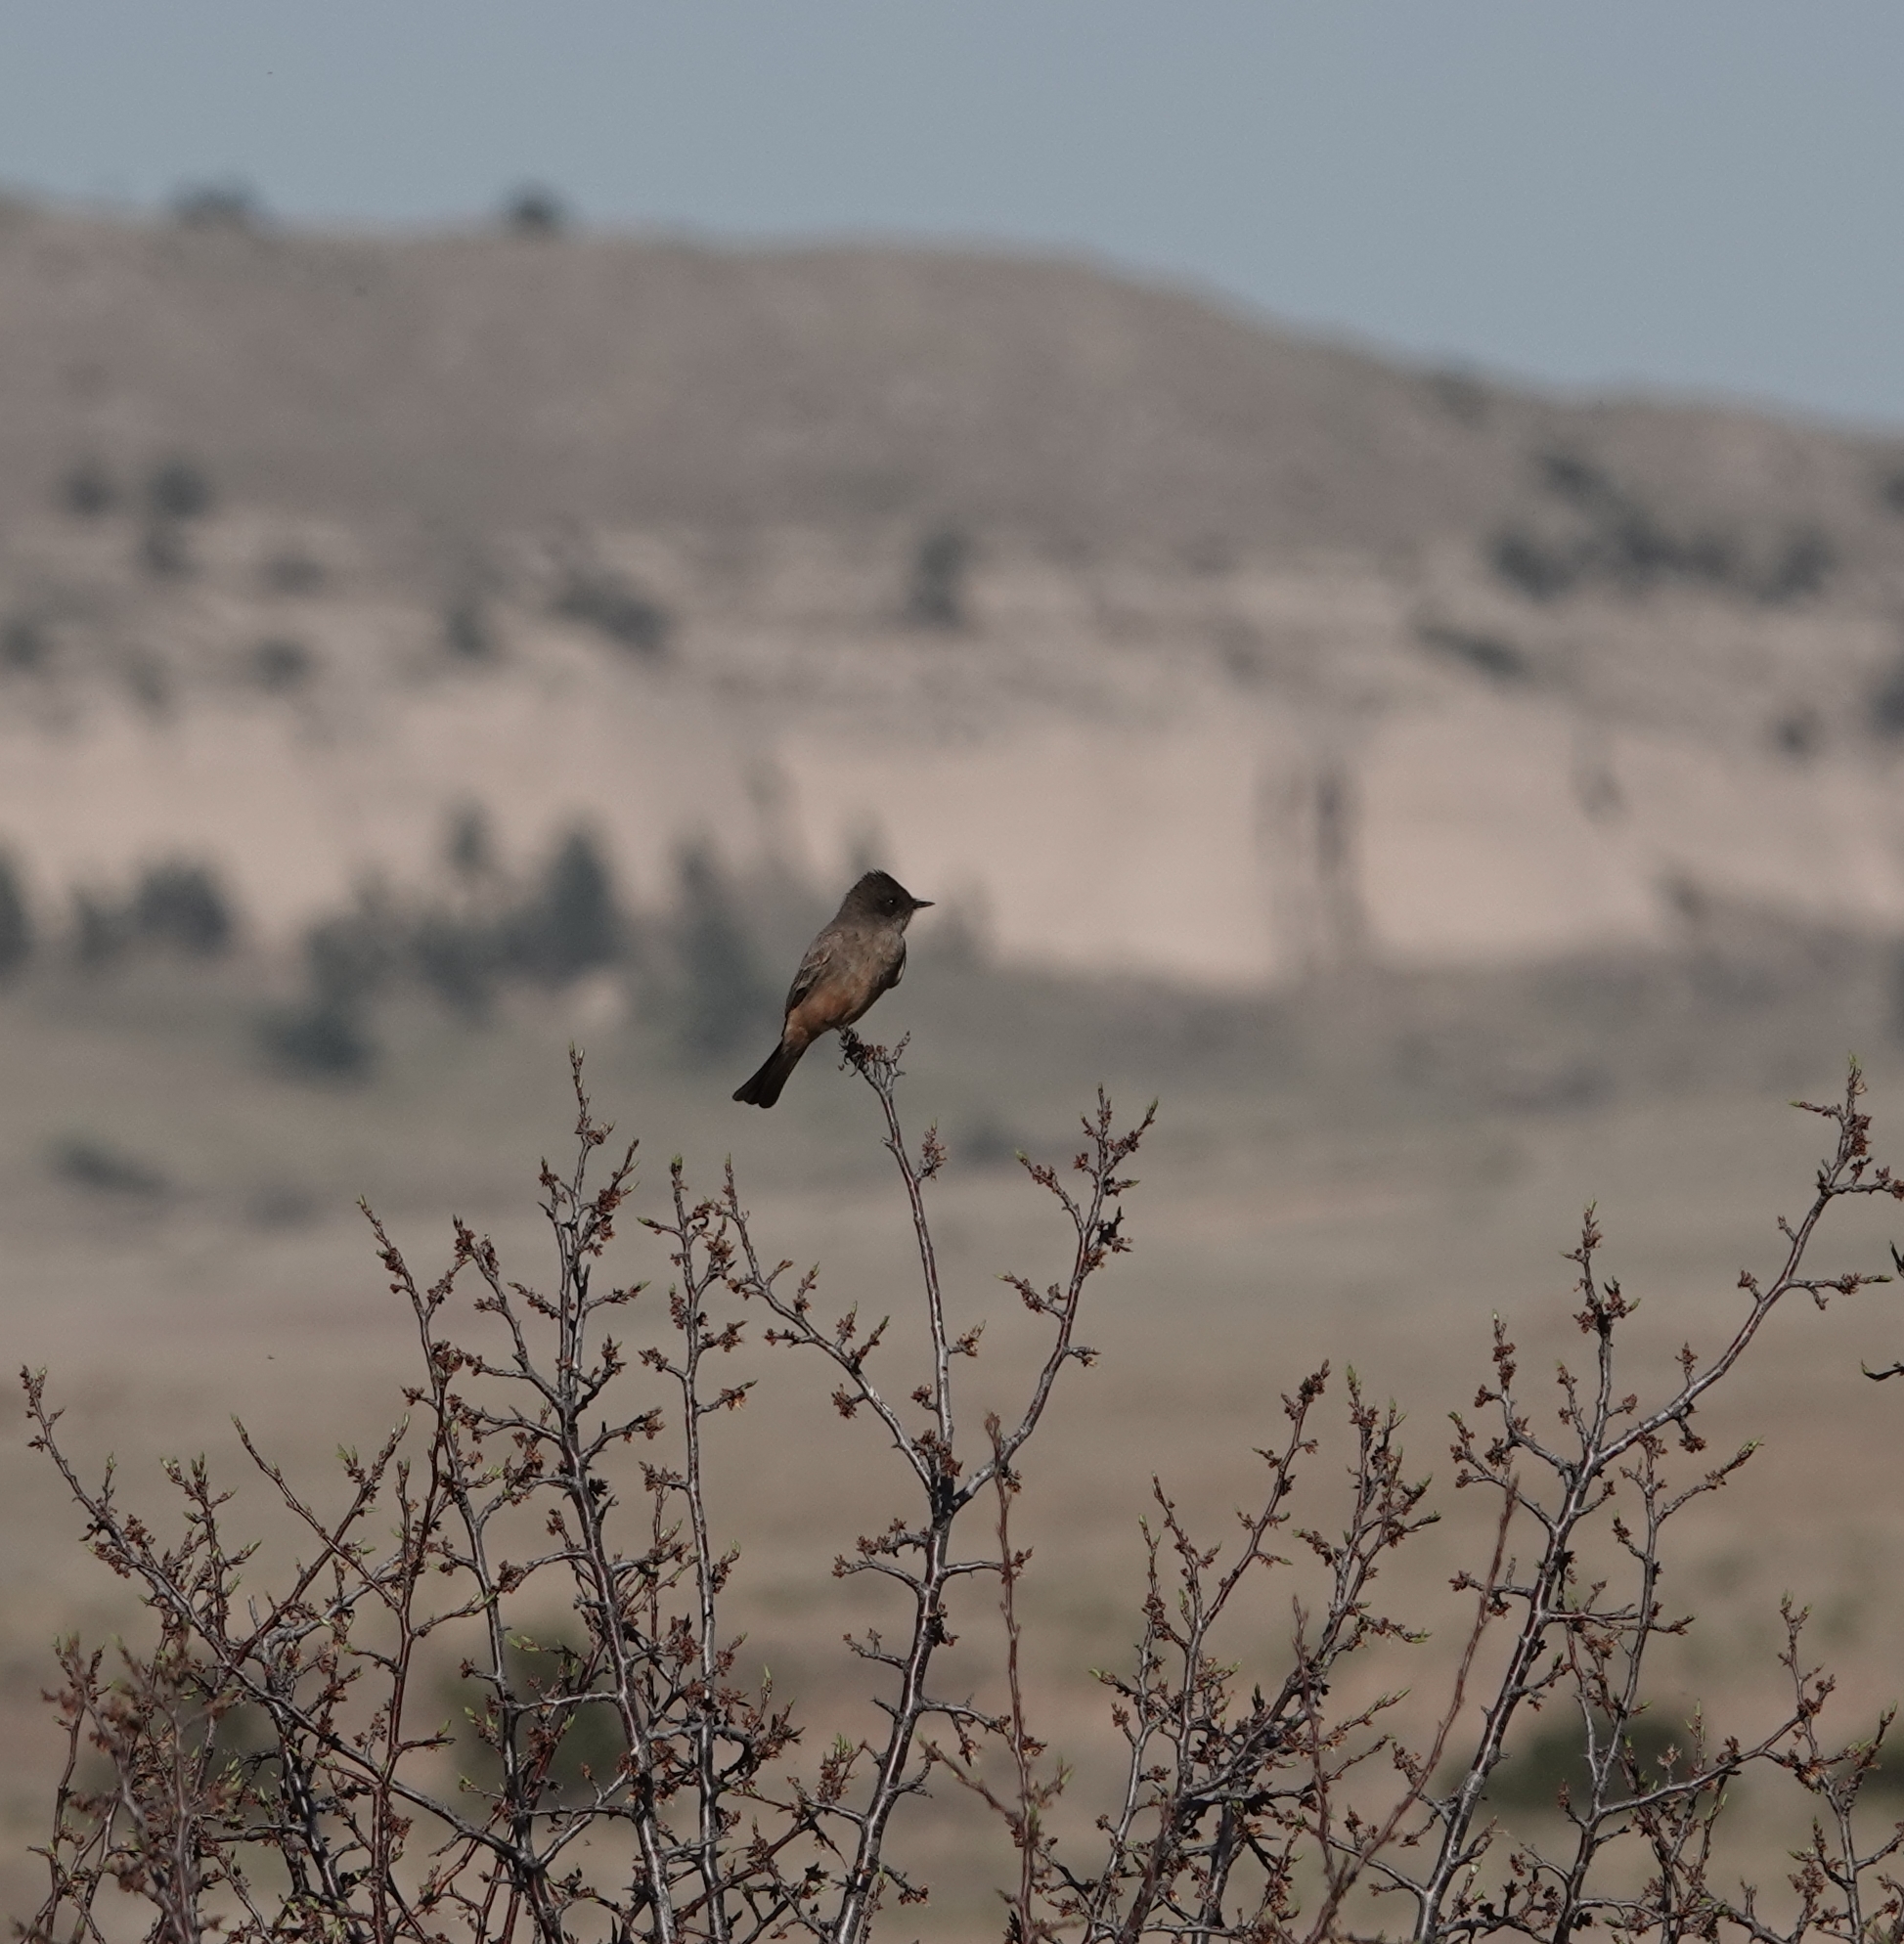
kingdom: Animalia
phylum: Chordata
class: Aves
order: Passeriformes
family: Tyrannidae
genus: Sayornis
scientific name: Sayornis saya
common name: Say's phoebe
